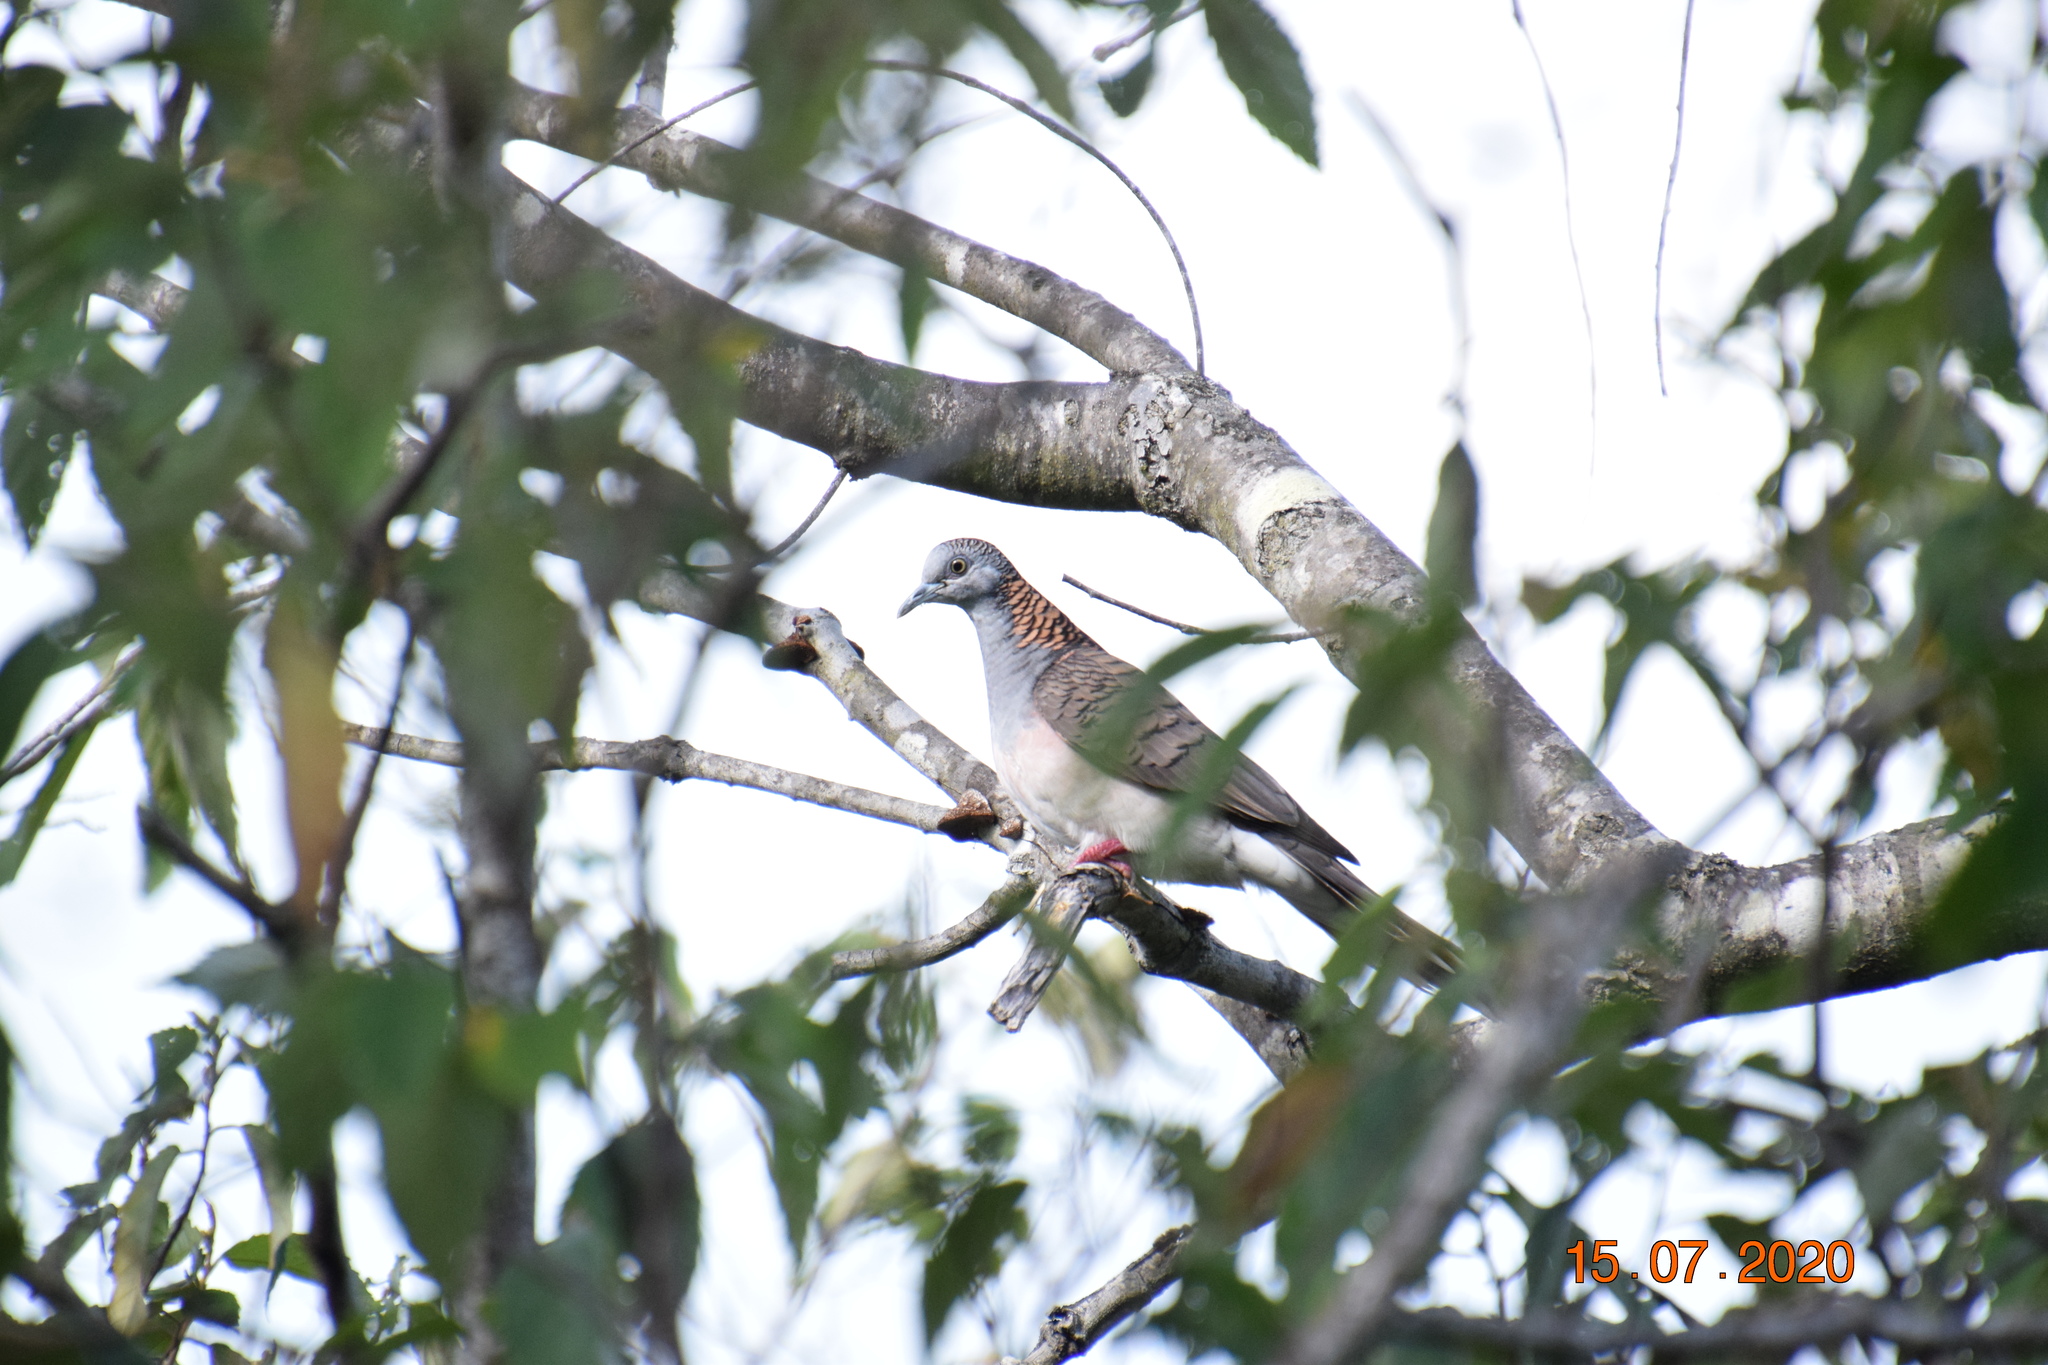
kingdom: Animalia
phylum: Chordata
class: Aves
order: Columbiformes
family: Columbidae
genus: Geopelia
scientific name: Geopelia humeralis
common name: Bar-shouldered dove
